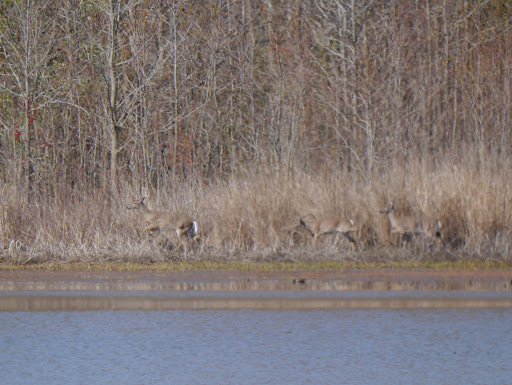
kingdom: Animalia
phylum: Chordata
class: Mammalia
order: Artiodactyla
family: Cervidae
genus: Odocoileus
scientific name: Odocoileus virginianus
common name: White-tailed deer
